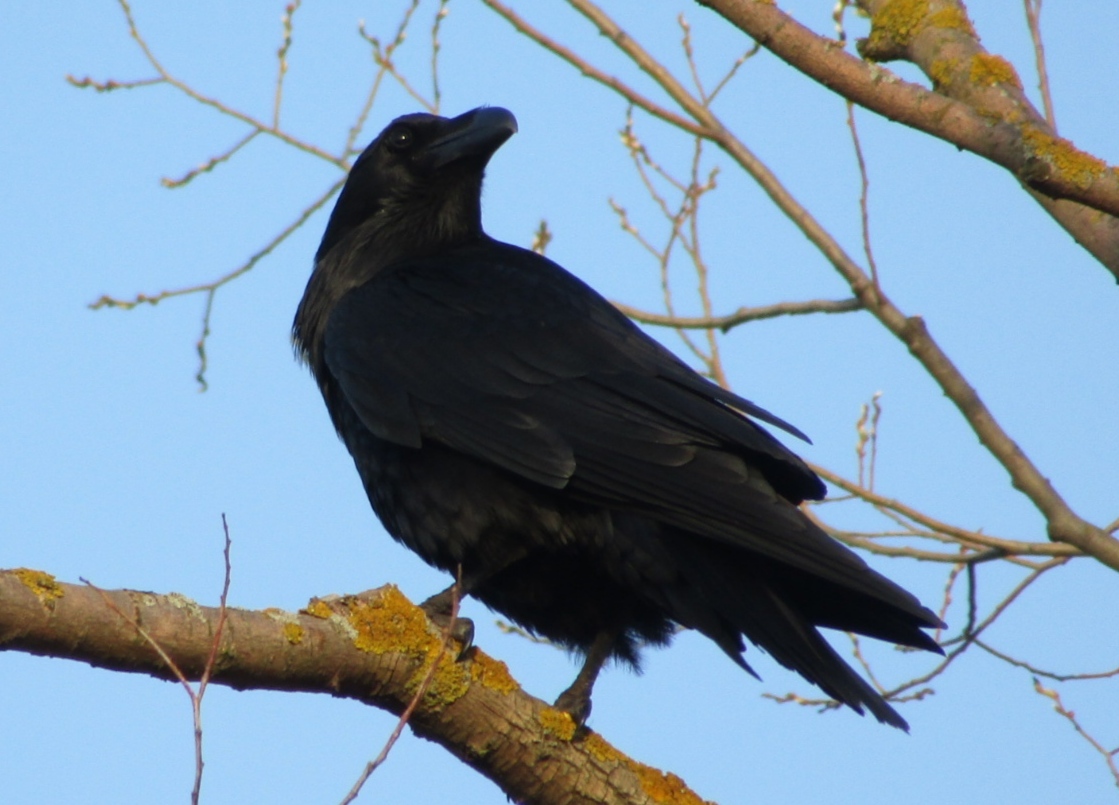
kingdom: Animalia
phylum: Chordata
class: Aves
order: Passeriformes
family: Corvidae
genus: Corvus
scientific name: Corvus corax
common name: Common raven
